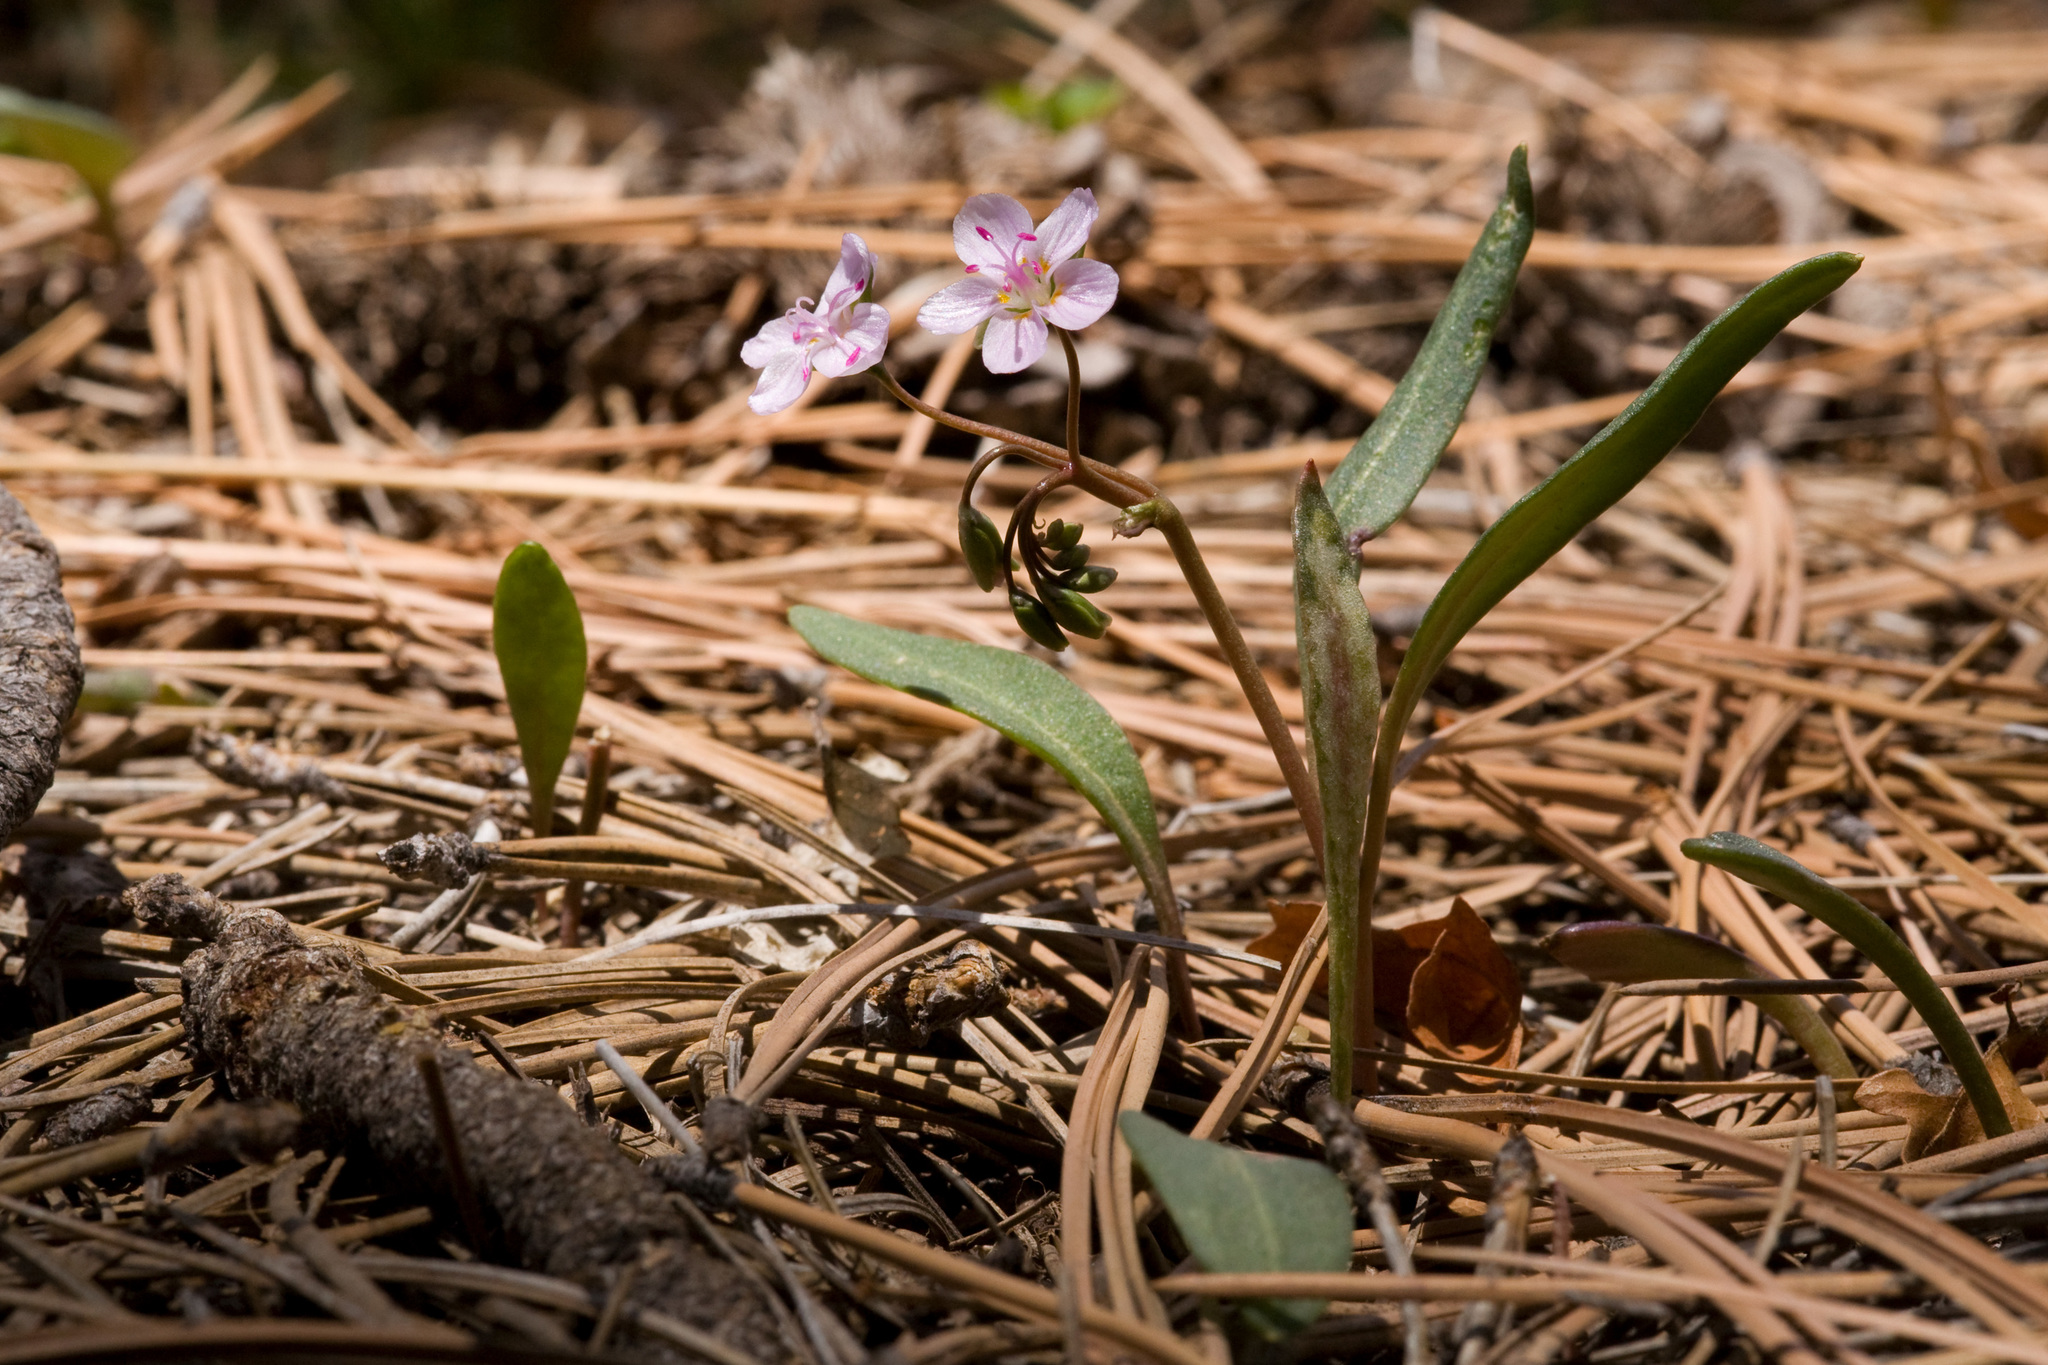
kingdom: Plantae
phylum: Tracheophyta
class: Magnoliopsida
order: Caryophyllales
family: Montiaceae
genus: Claytonia
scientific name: Claytonia rosea
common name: Rocky mountain spring-beauty
